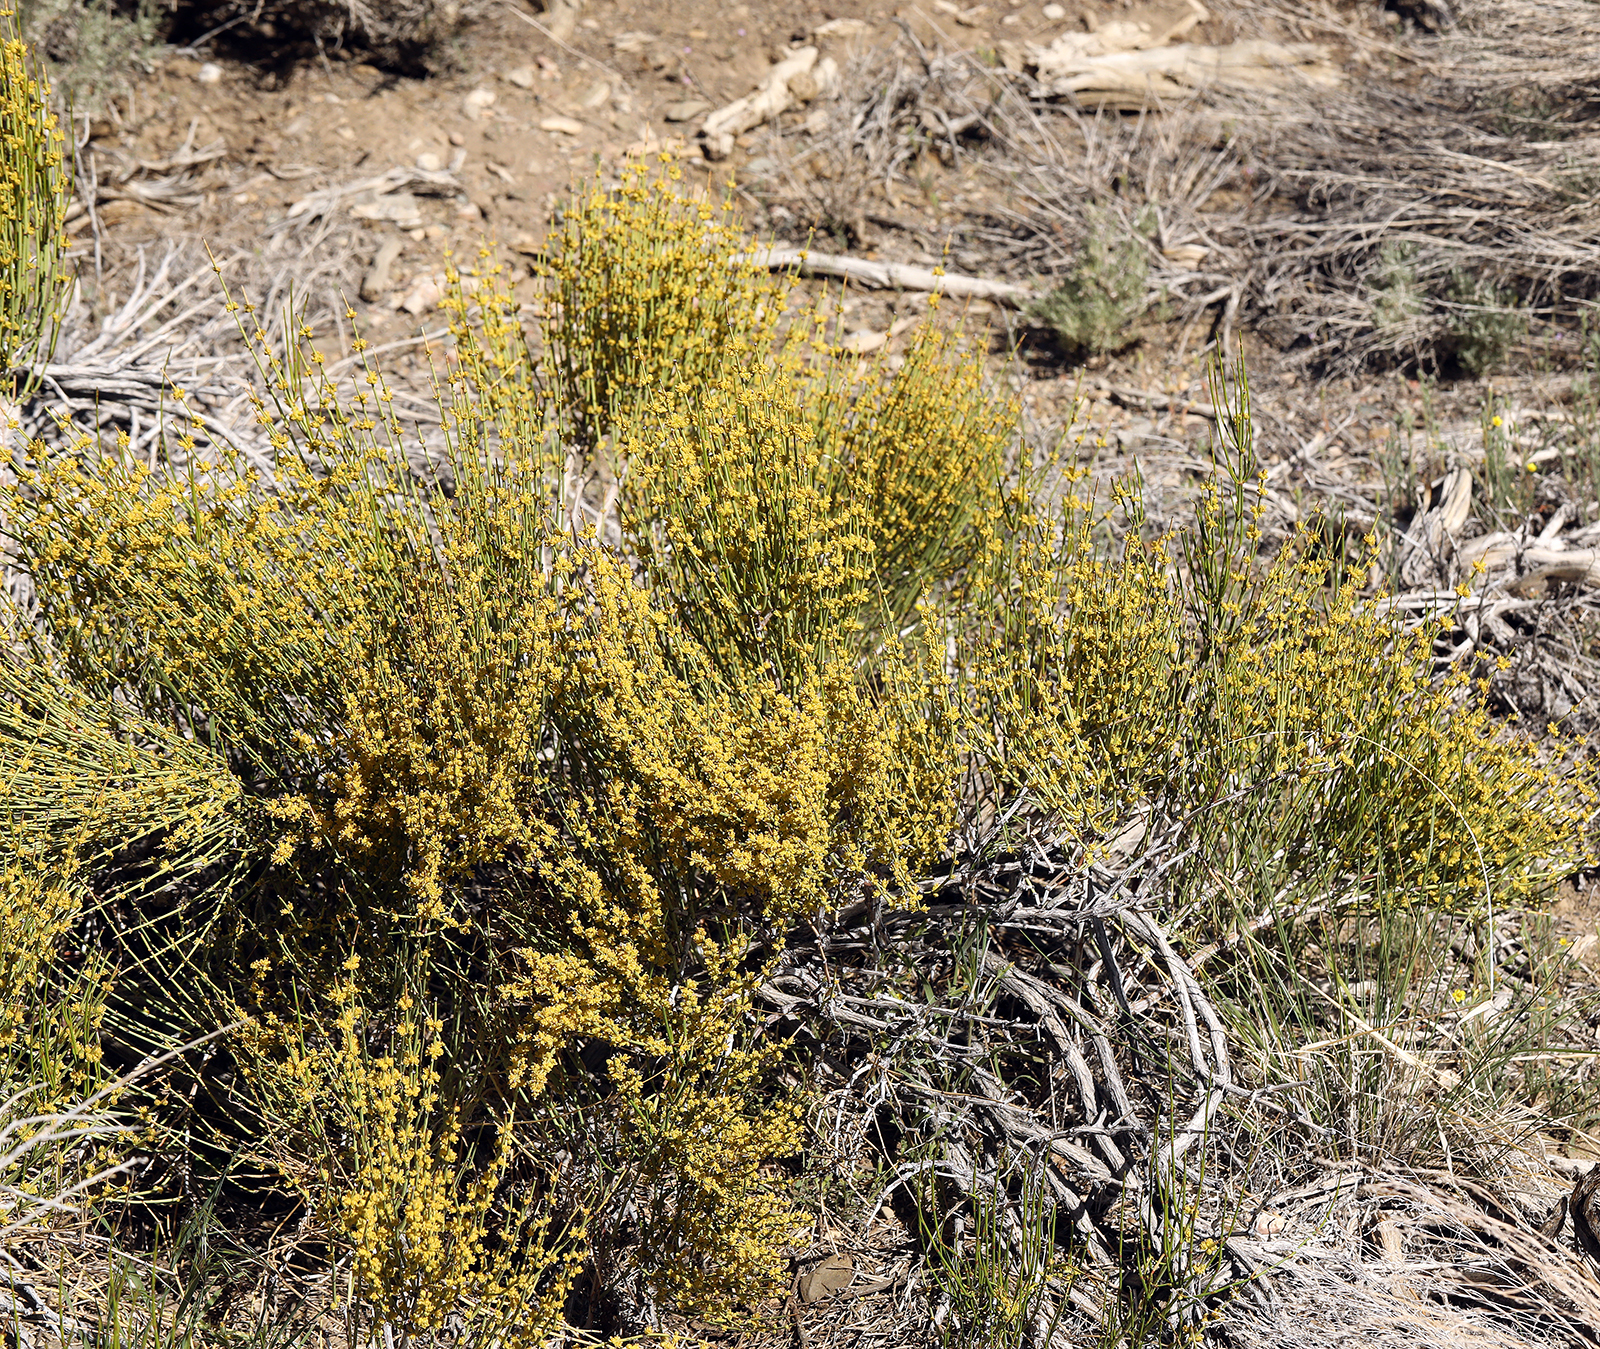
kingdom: Plantae
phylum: Tracheophyta
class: Gnetopsida
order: Ephedrales
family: Ephedraceae
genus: Ephedra
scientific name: Ephedra viridis
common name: Green ephedra
